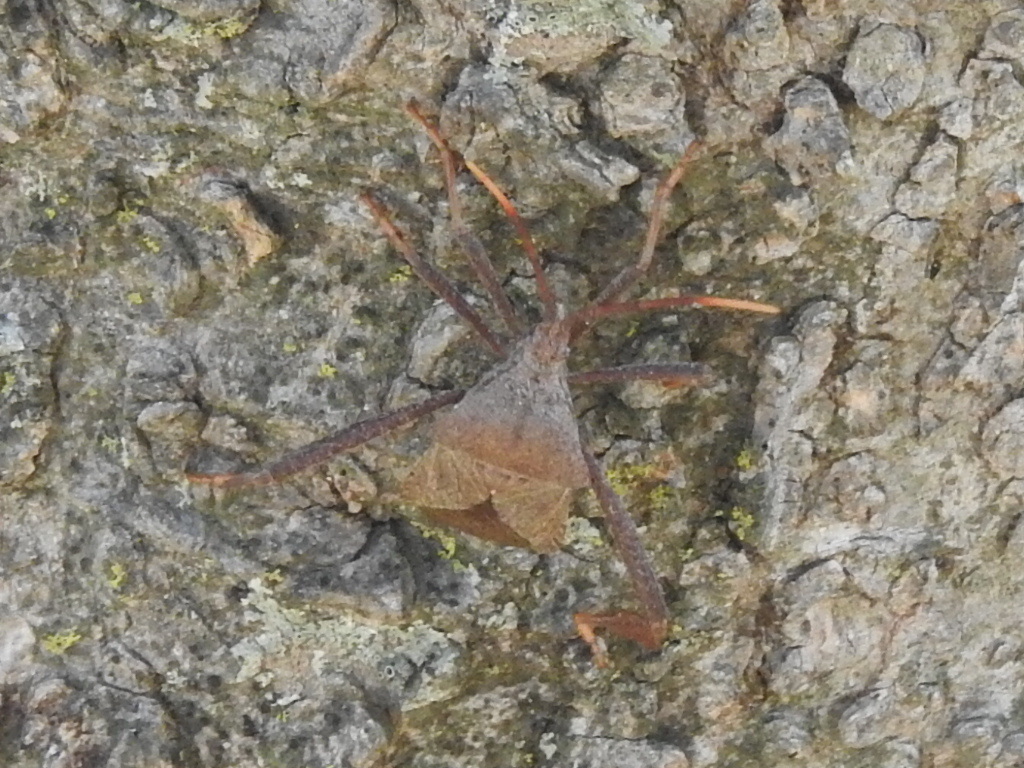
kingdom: Animalia
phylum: Arthropoda
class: Insecta
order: Hemiptera
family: Coreidae
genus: Acanthocephala
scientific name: Acanthocephala terminalis
